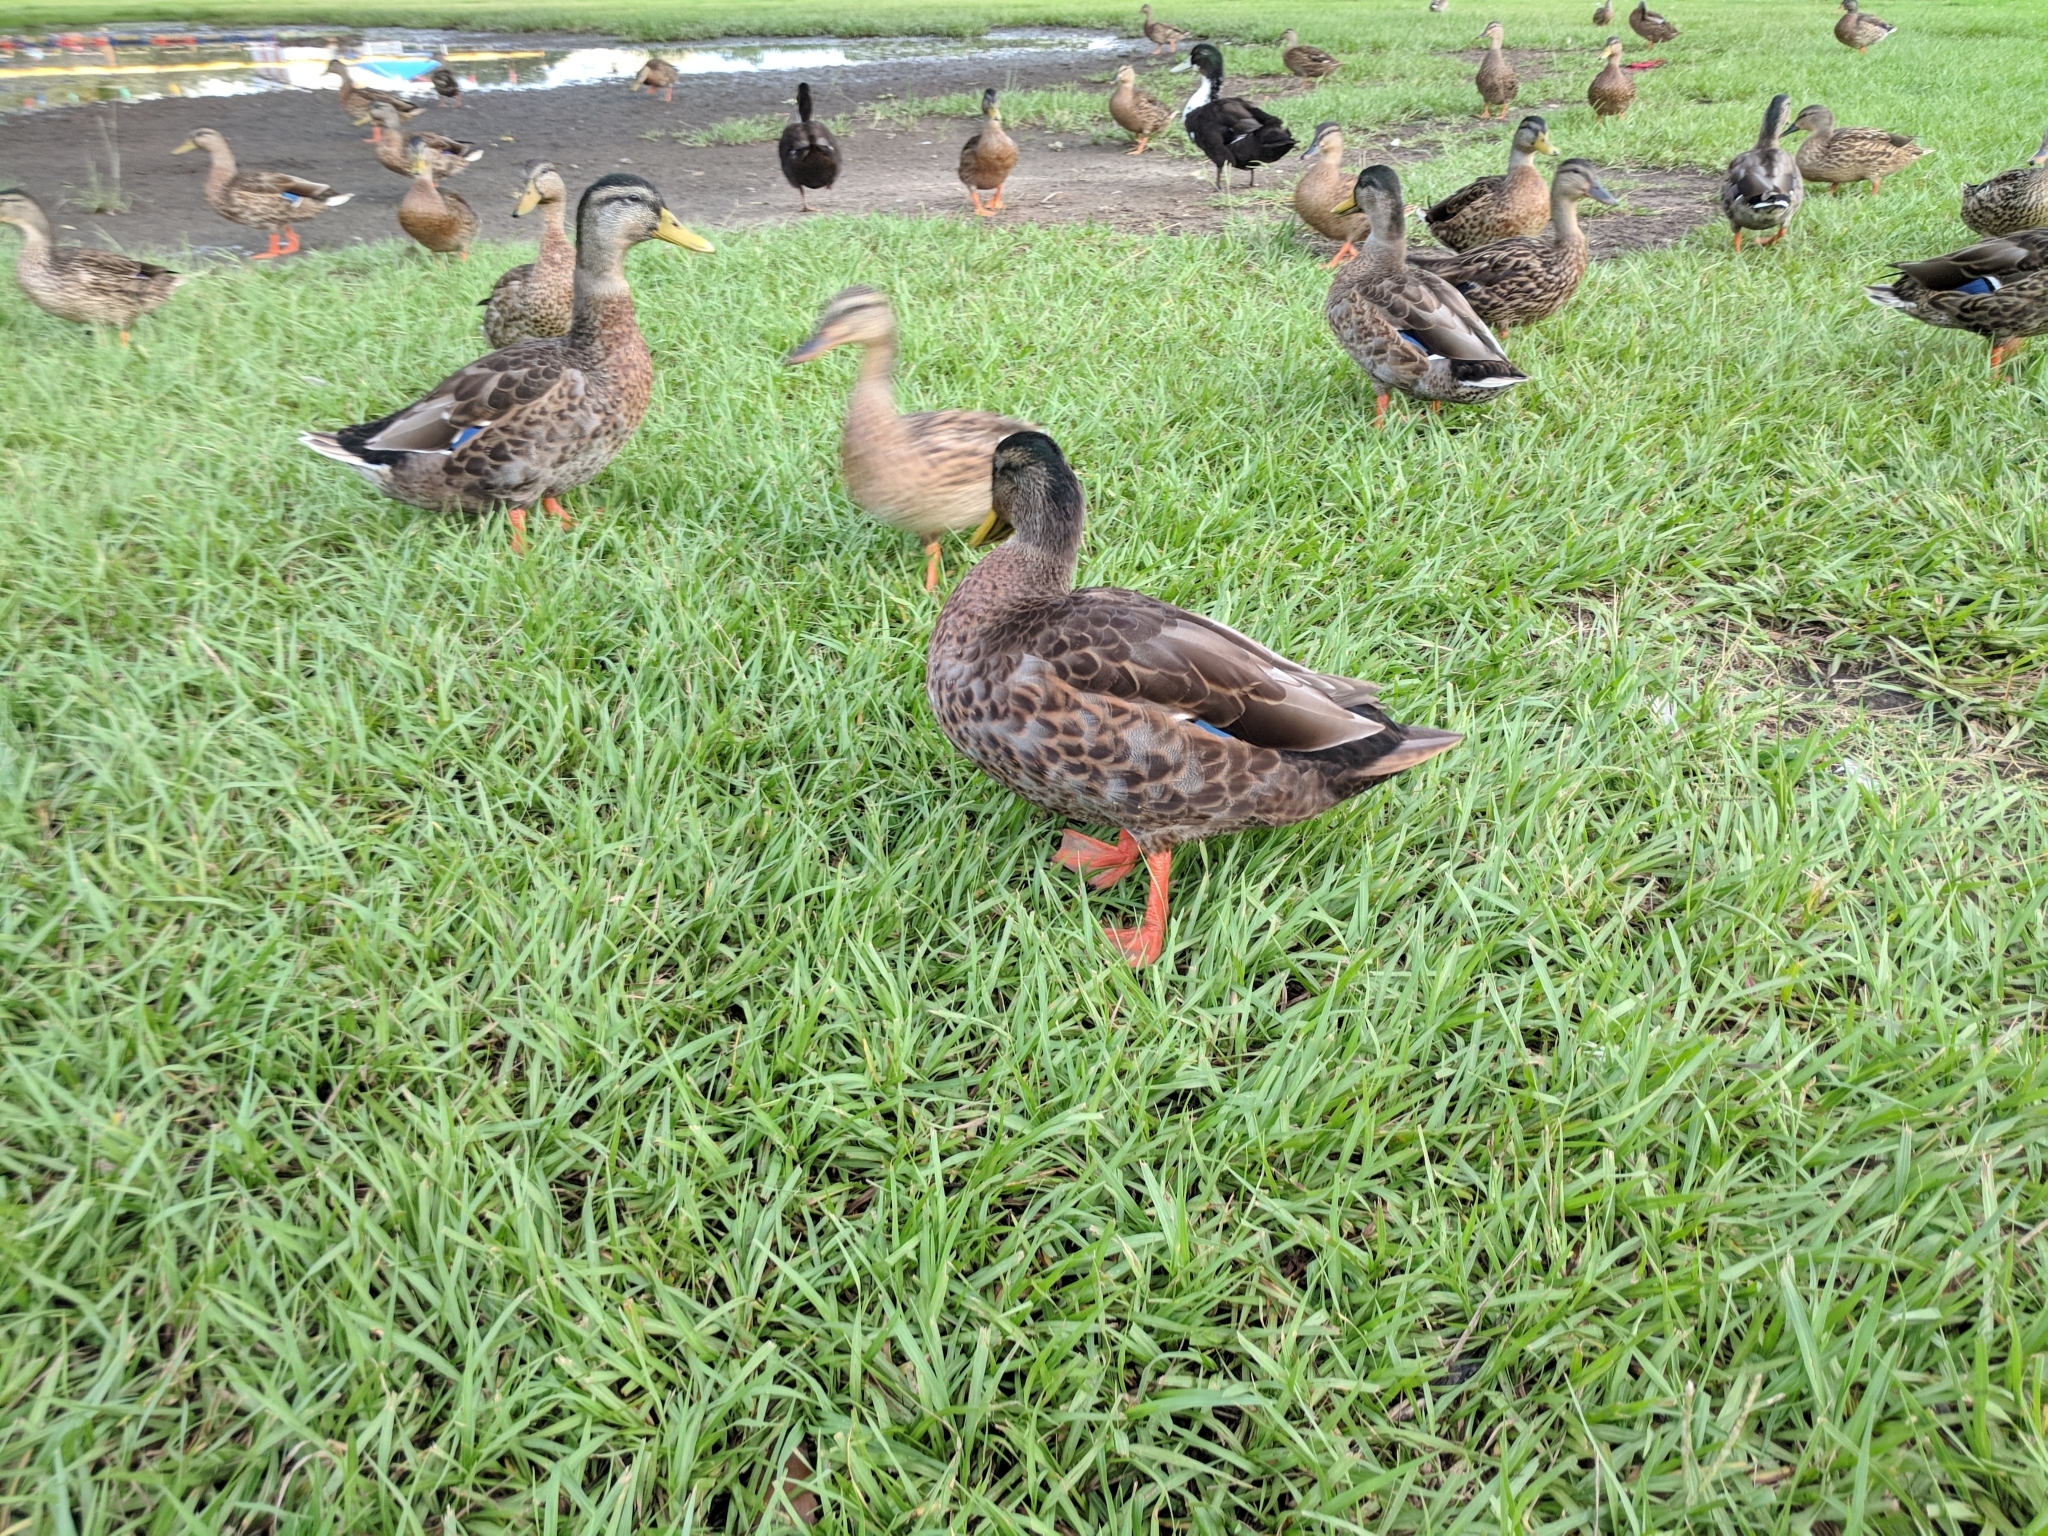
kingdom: Animalia
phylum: Chordata
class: Aves
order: Anseriformes
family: Anatidae
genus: Anas
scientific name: Anas platyrhynchos
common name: Mallard
